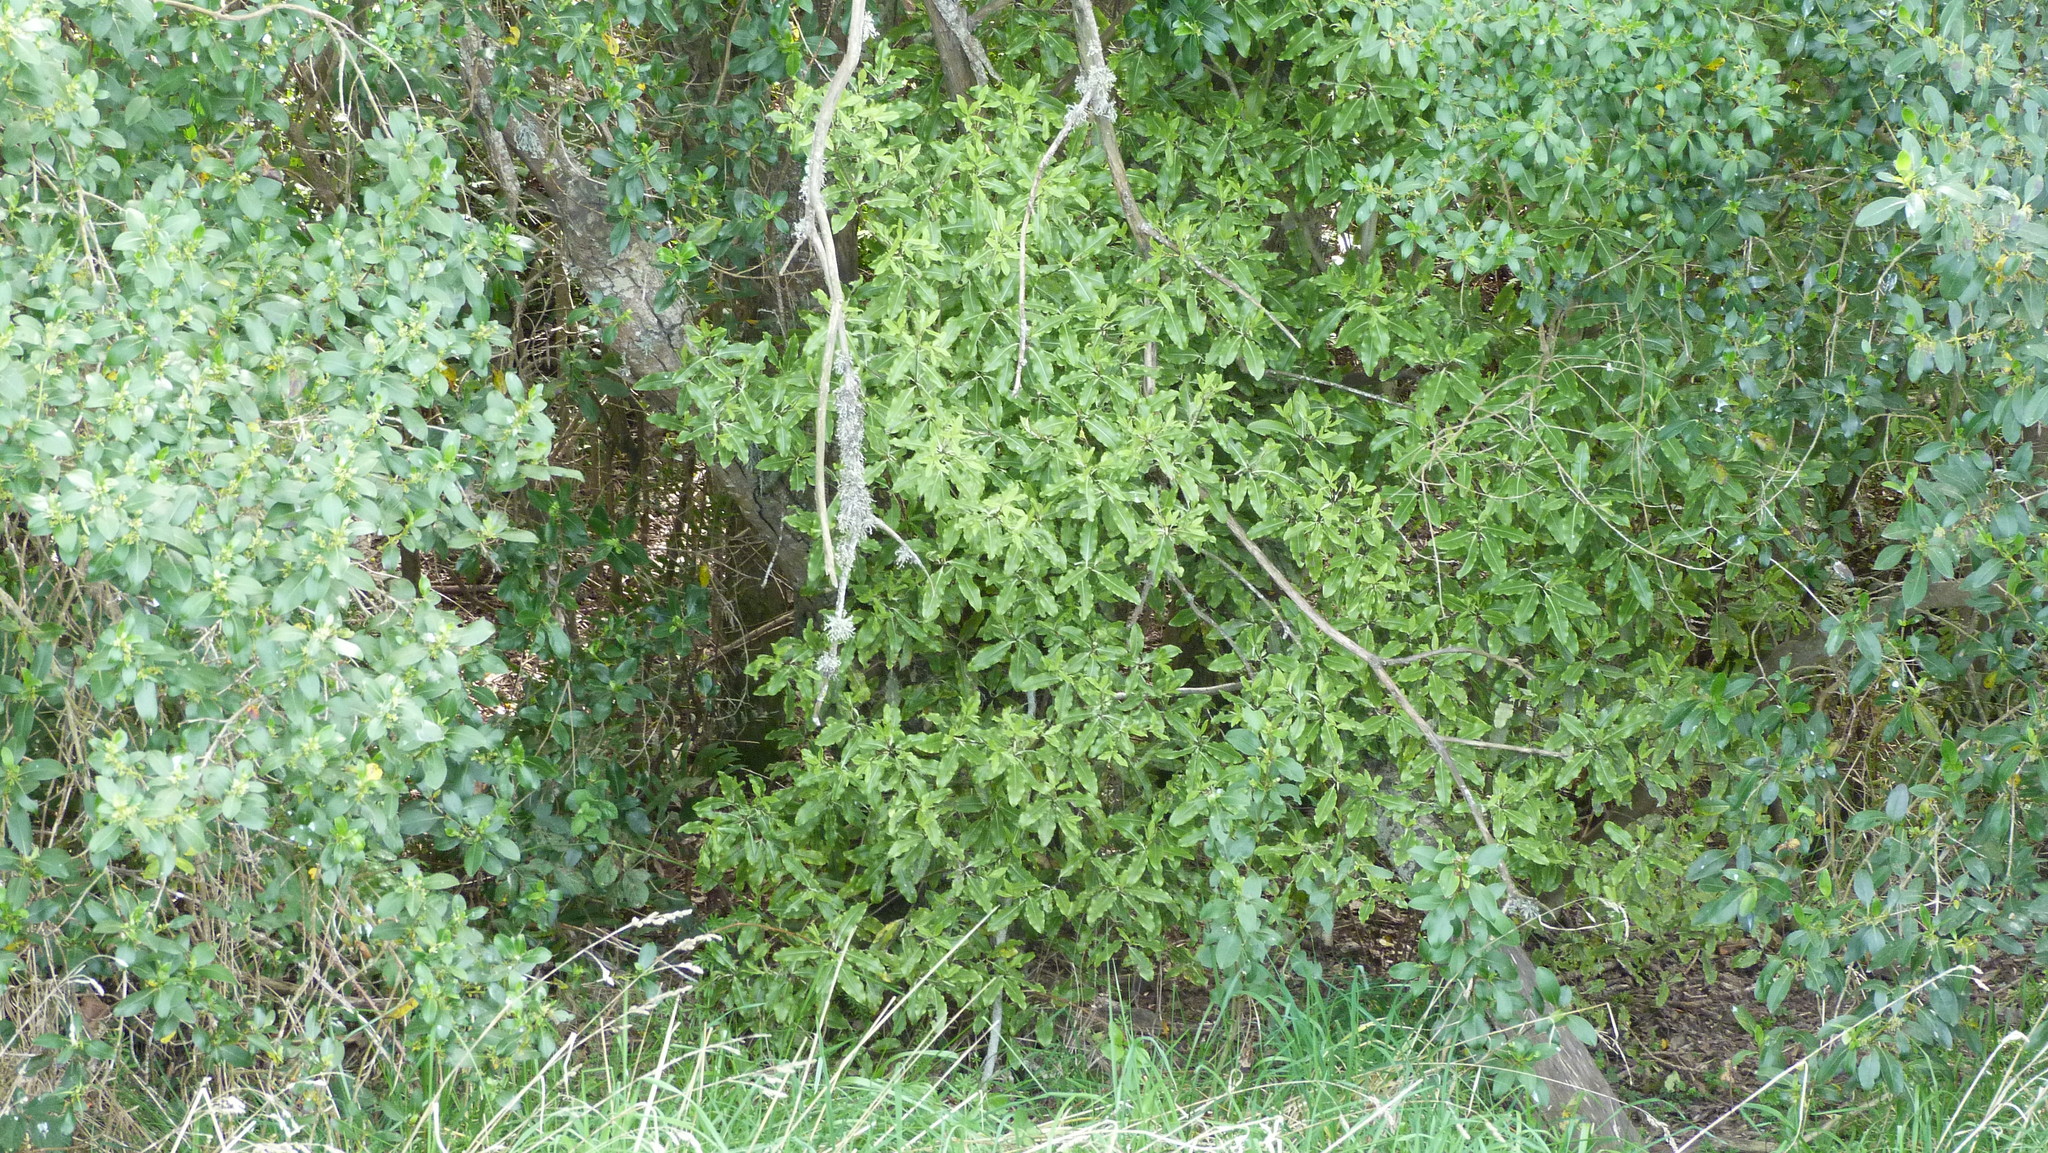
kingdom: Plantae
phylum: Tracheophyta
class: Magnoliopsida
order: Apiales
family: Pittosporaceae
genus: Pittosporum
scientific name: Pittosporum eugenioides
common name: Lemonwood
